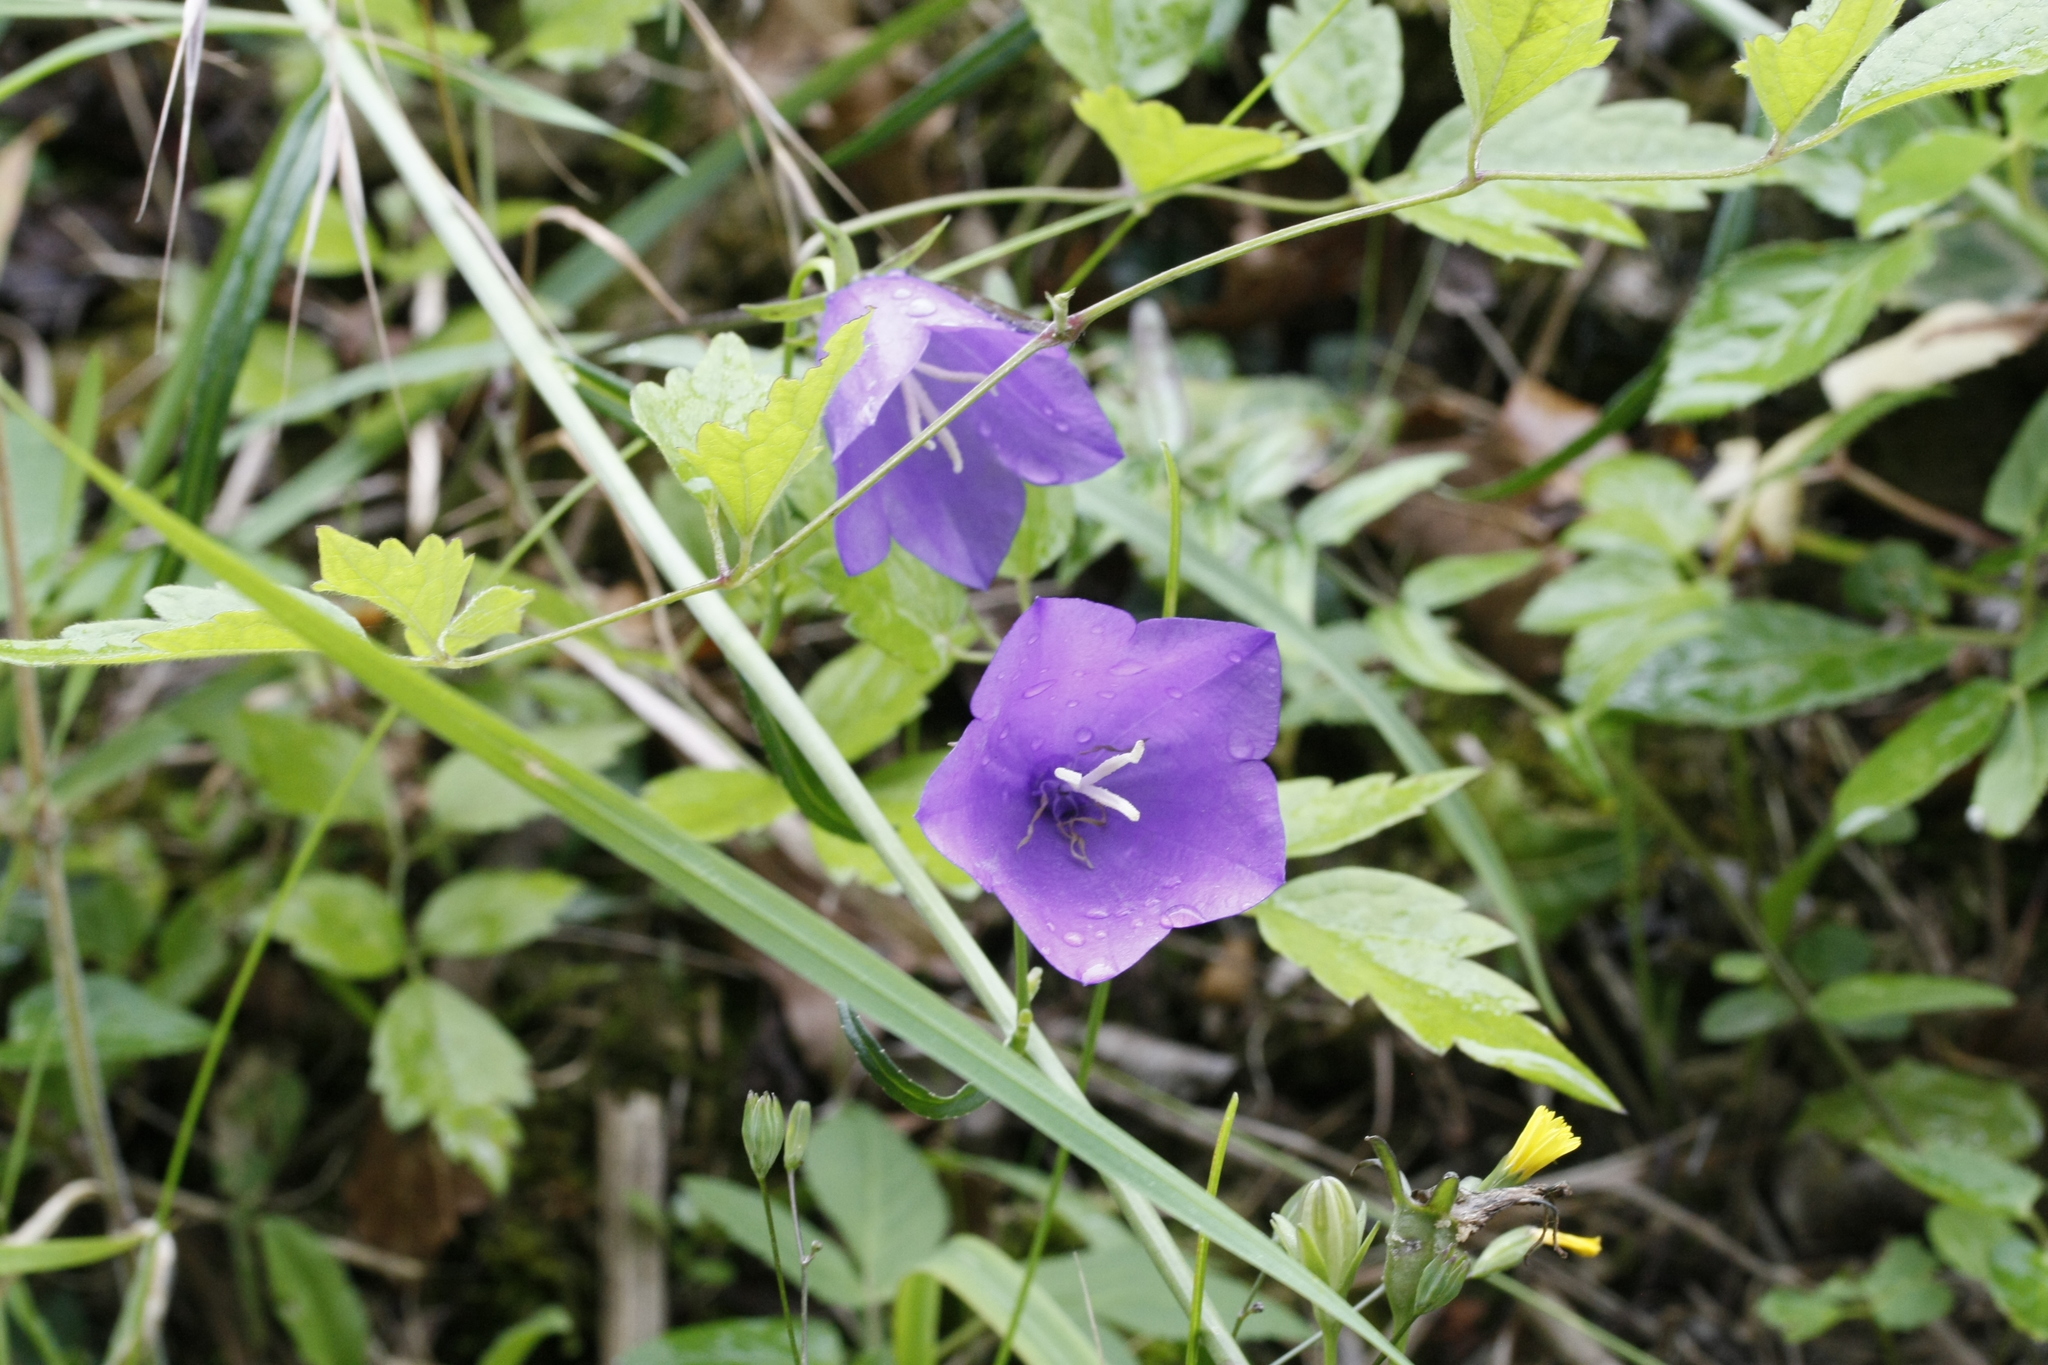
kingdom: Plantae
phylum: Tracheophyta
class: Magnoliopsida
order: Asterales
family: Campanulaceae
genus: Campanula
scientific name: Campanula persicifolia
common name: Peach-leaved bellflower
